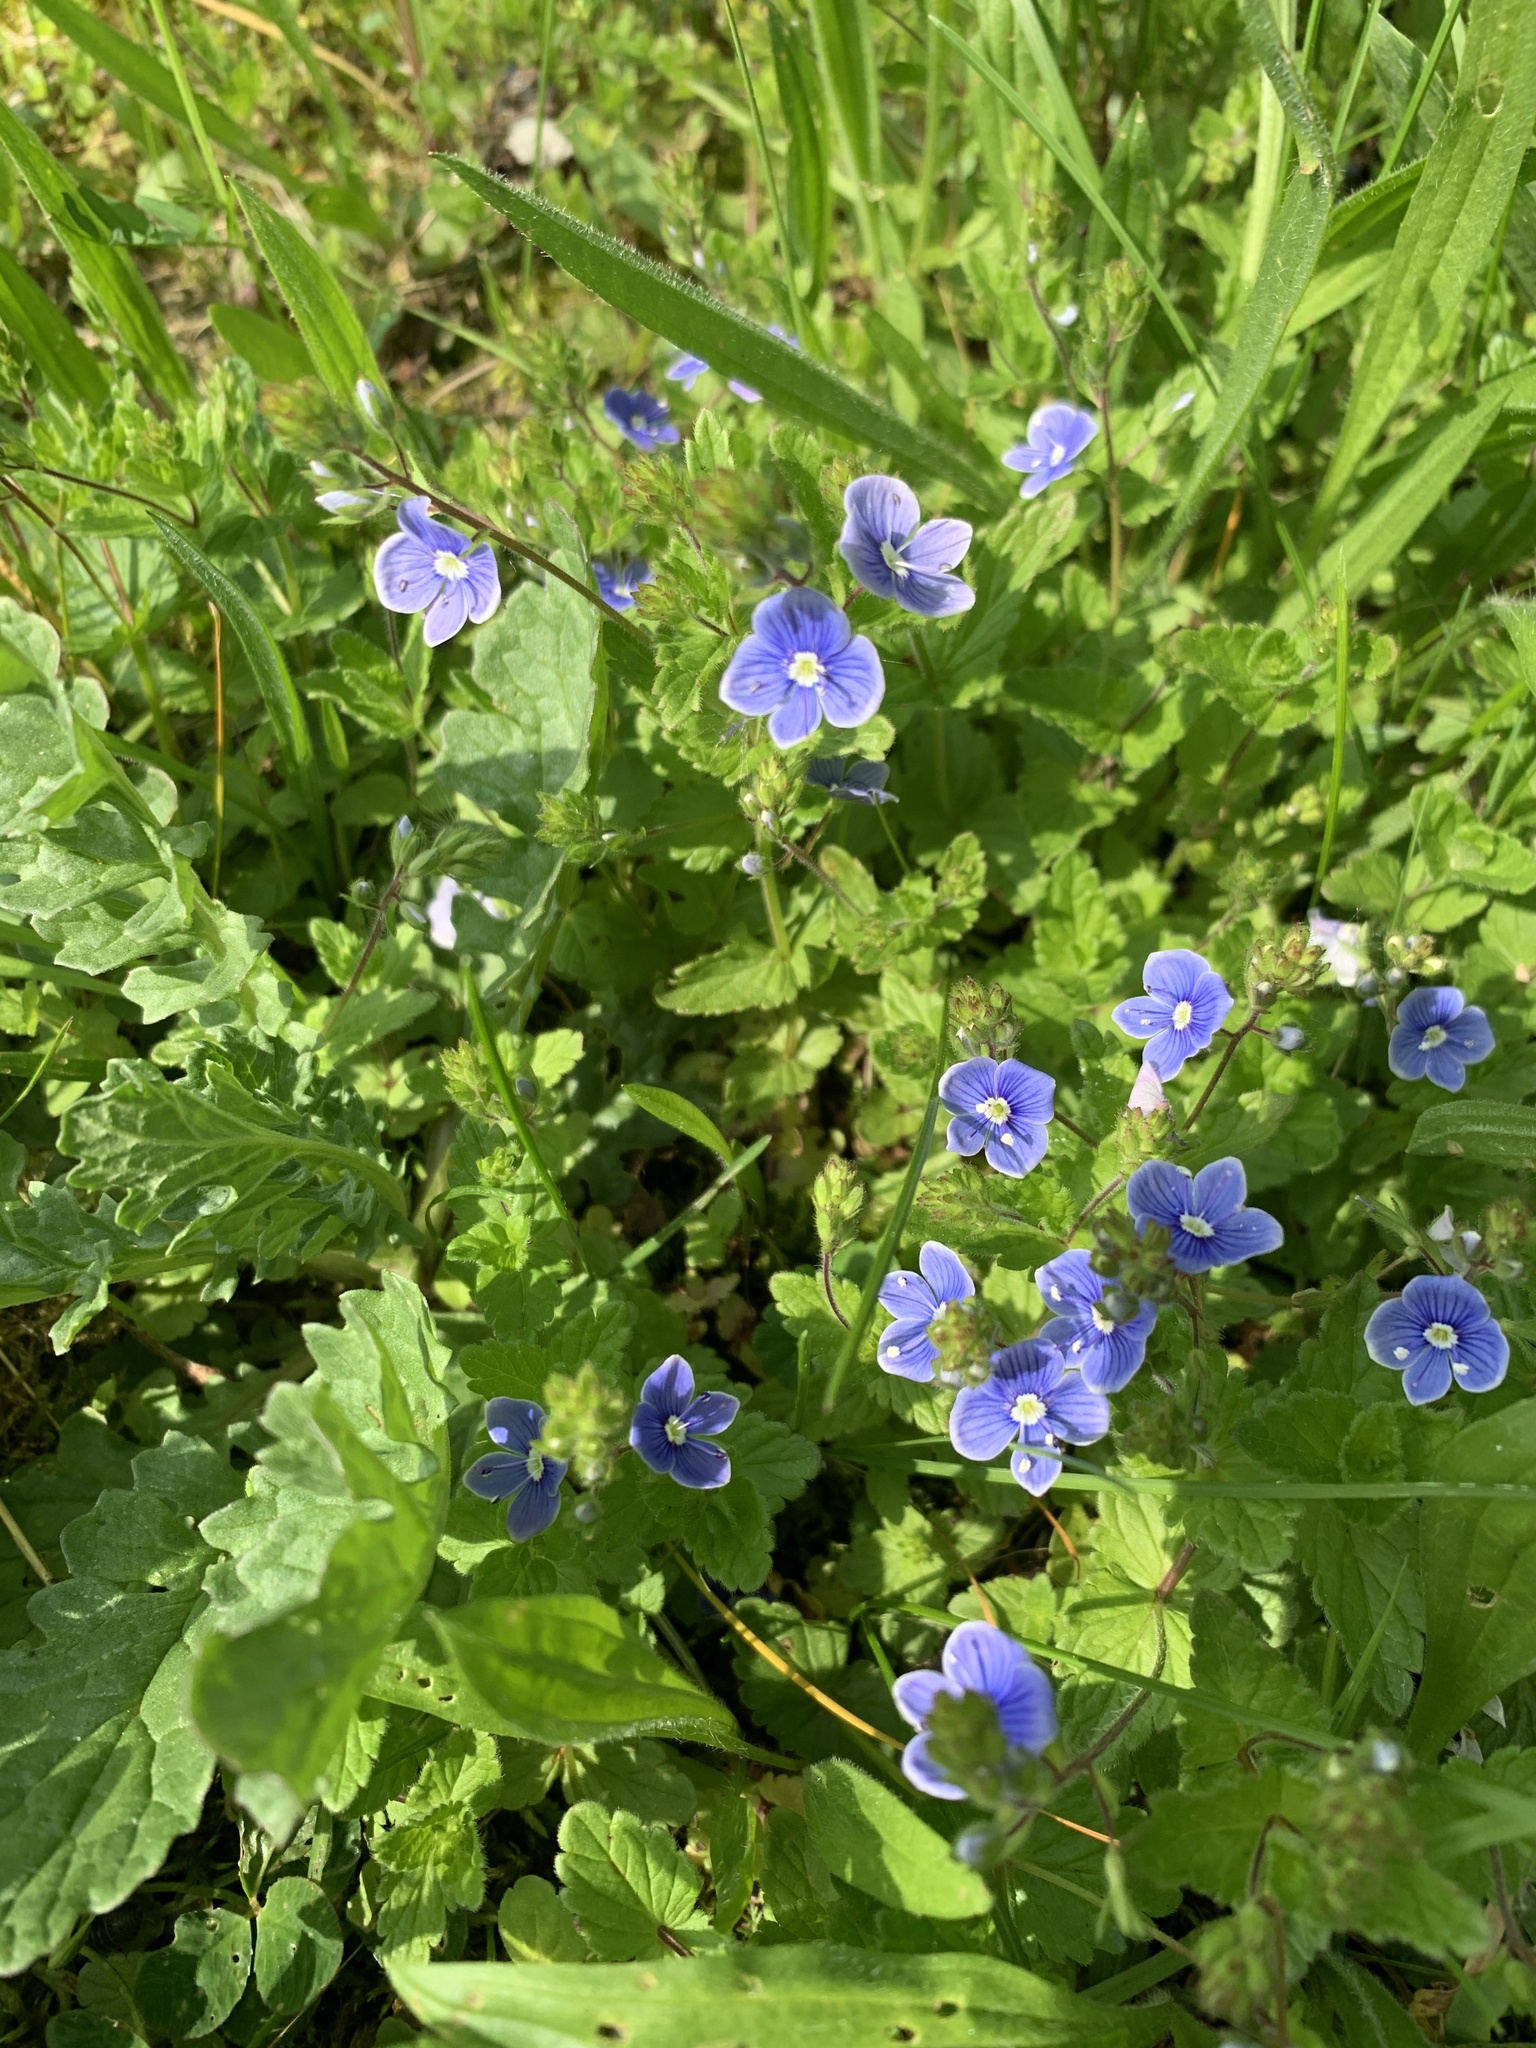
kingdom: Plantae
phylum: Tracheophyta
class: Magnoliopsida
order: Lamiales
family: Plantaginaceae
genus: Veronica
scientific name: Veronica chamaedrys
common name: Germander speedwell
